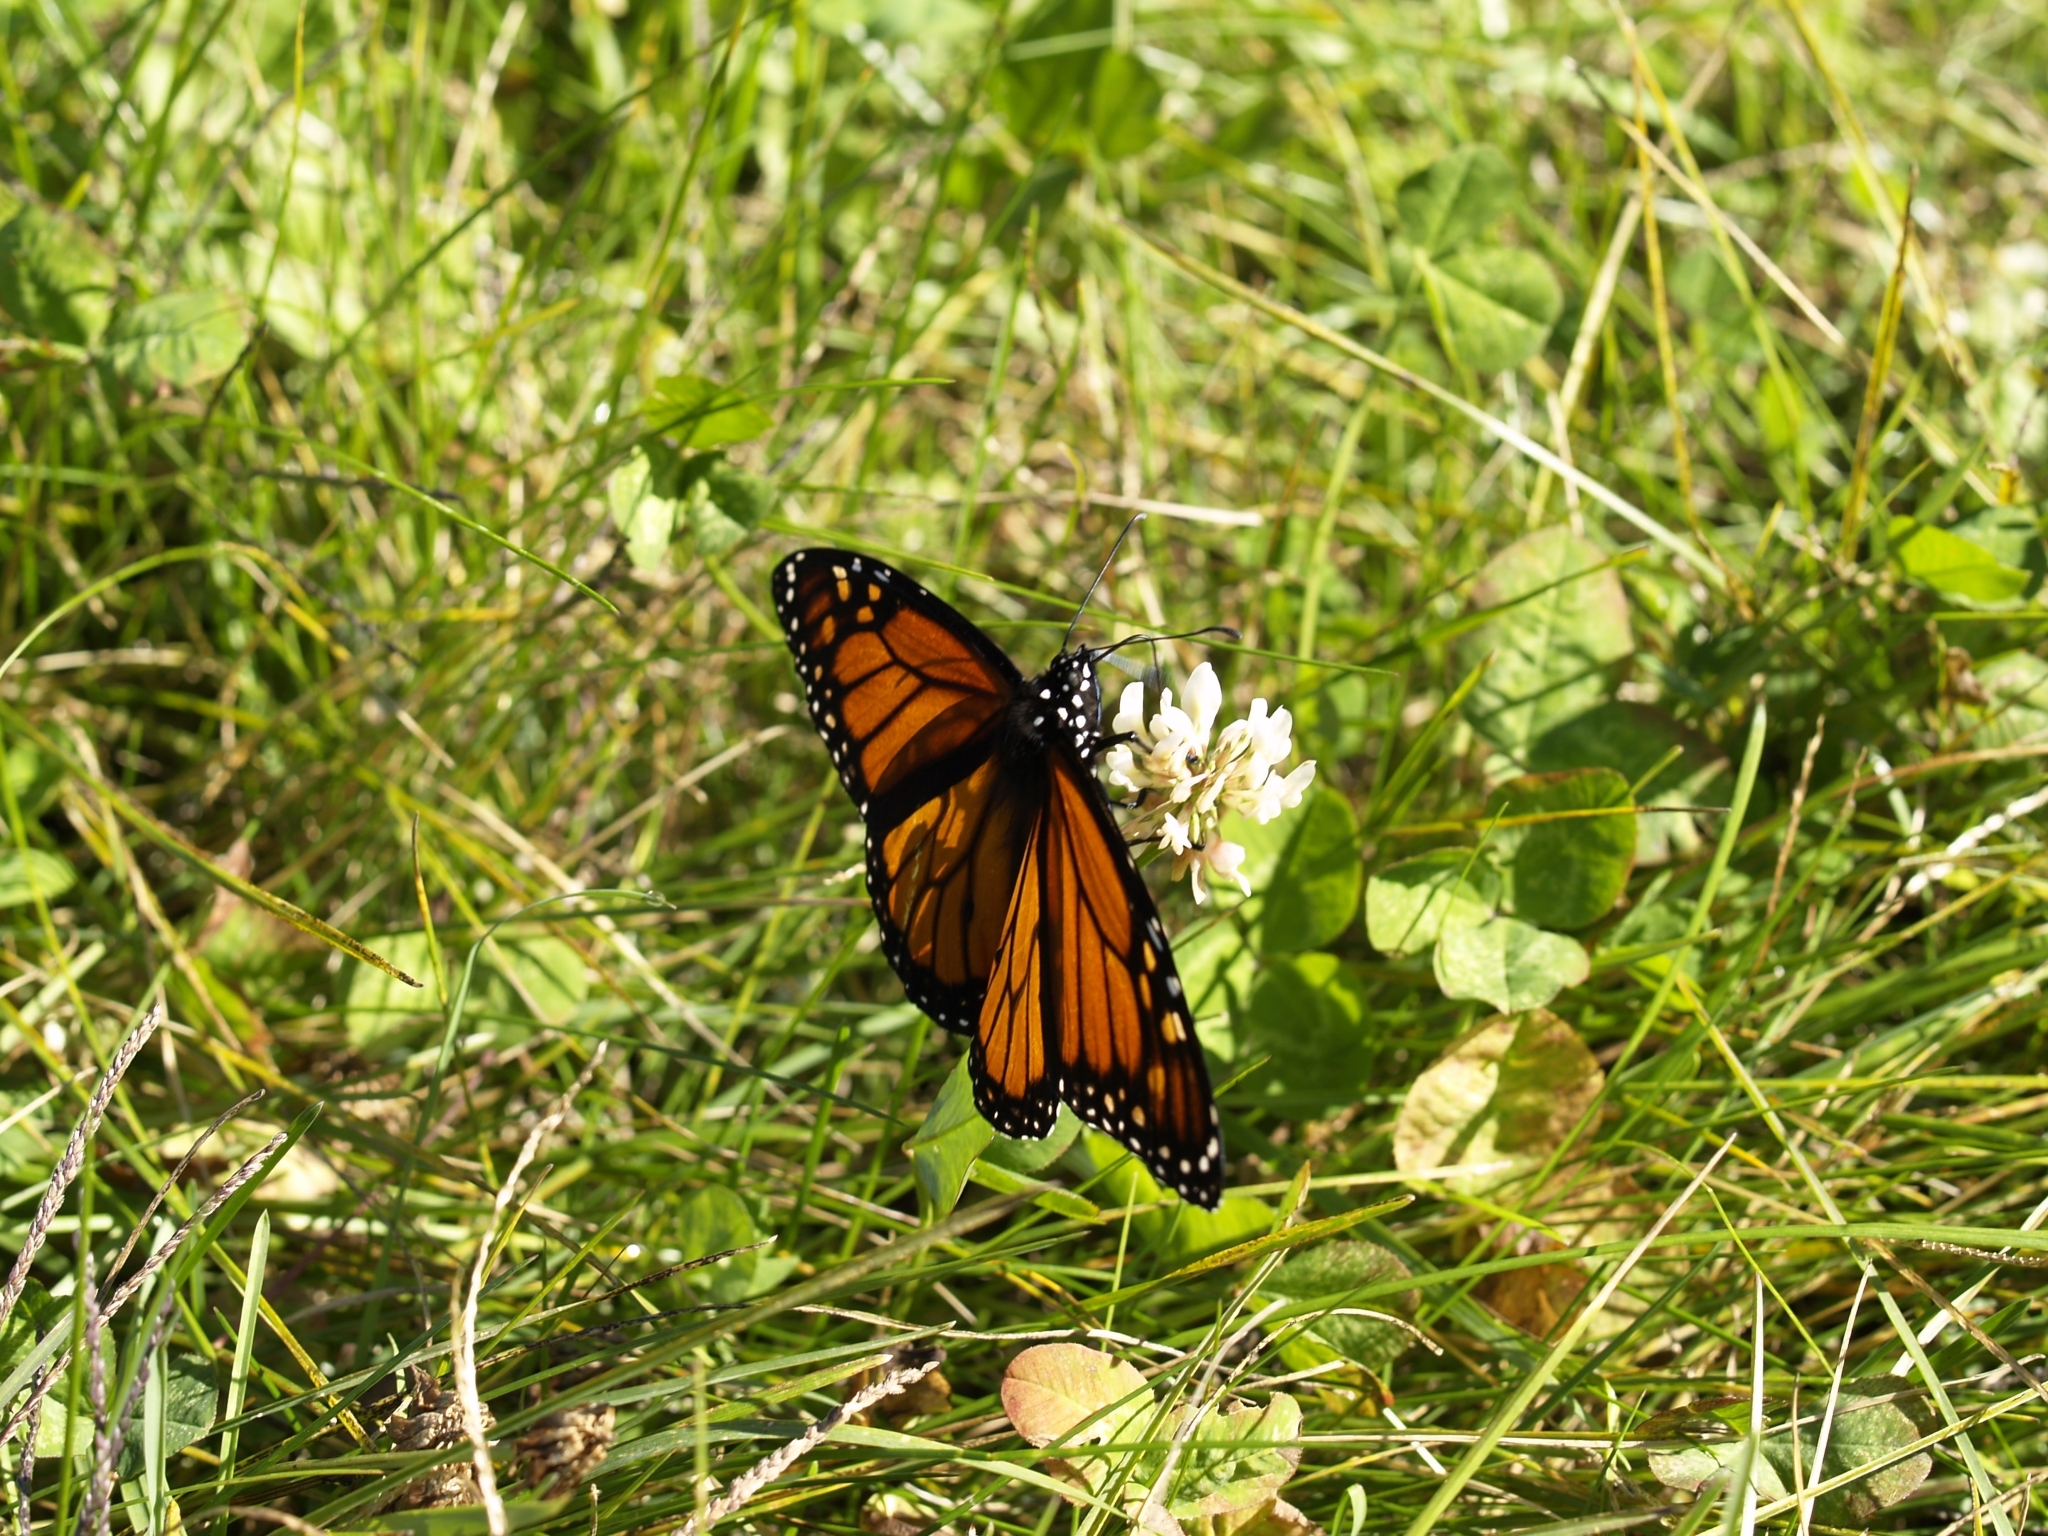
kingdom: Animalia
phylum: Arthropoda
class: Insecta
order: Lepidoptera
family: Nymphalidae
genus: Danaus
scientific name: Danaus plexippus
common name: Monarch
